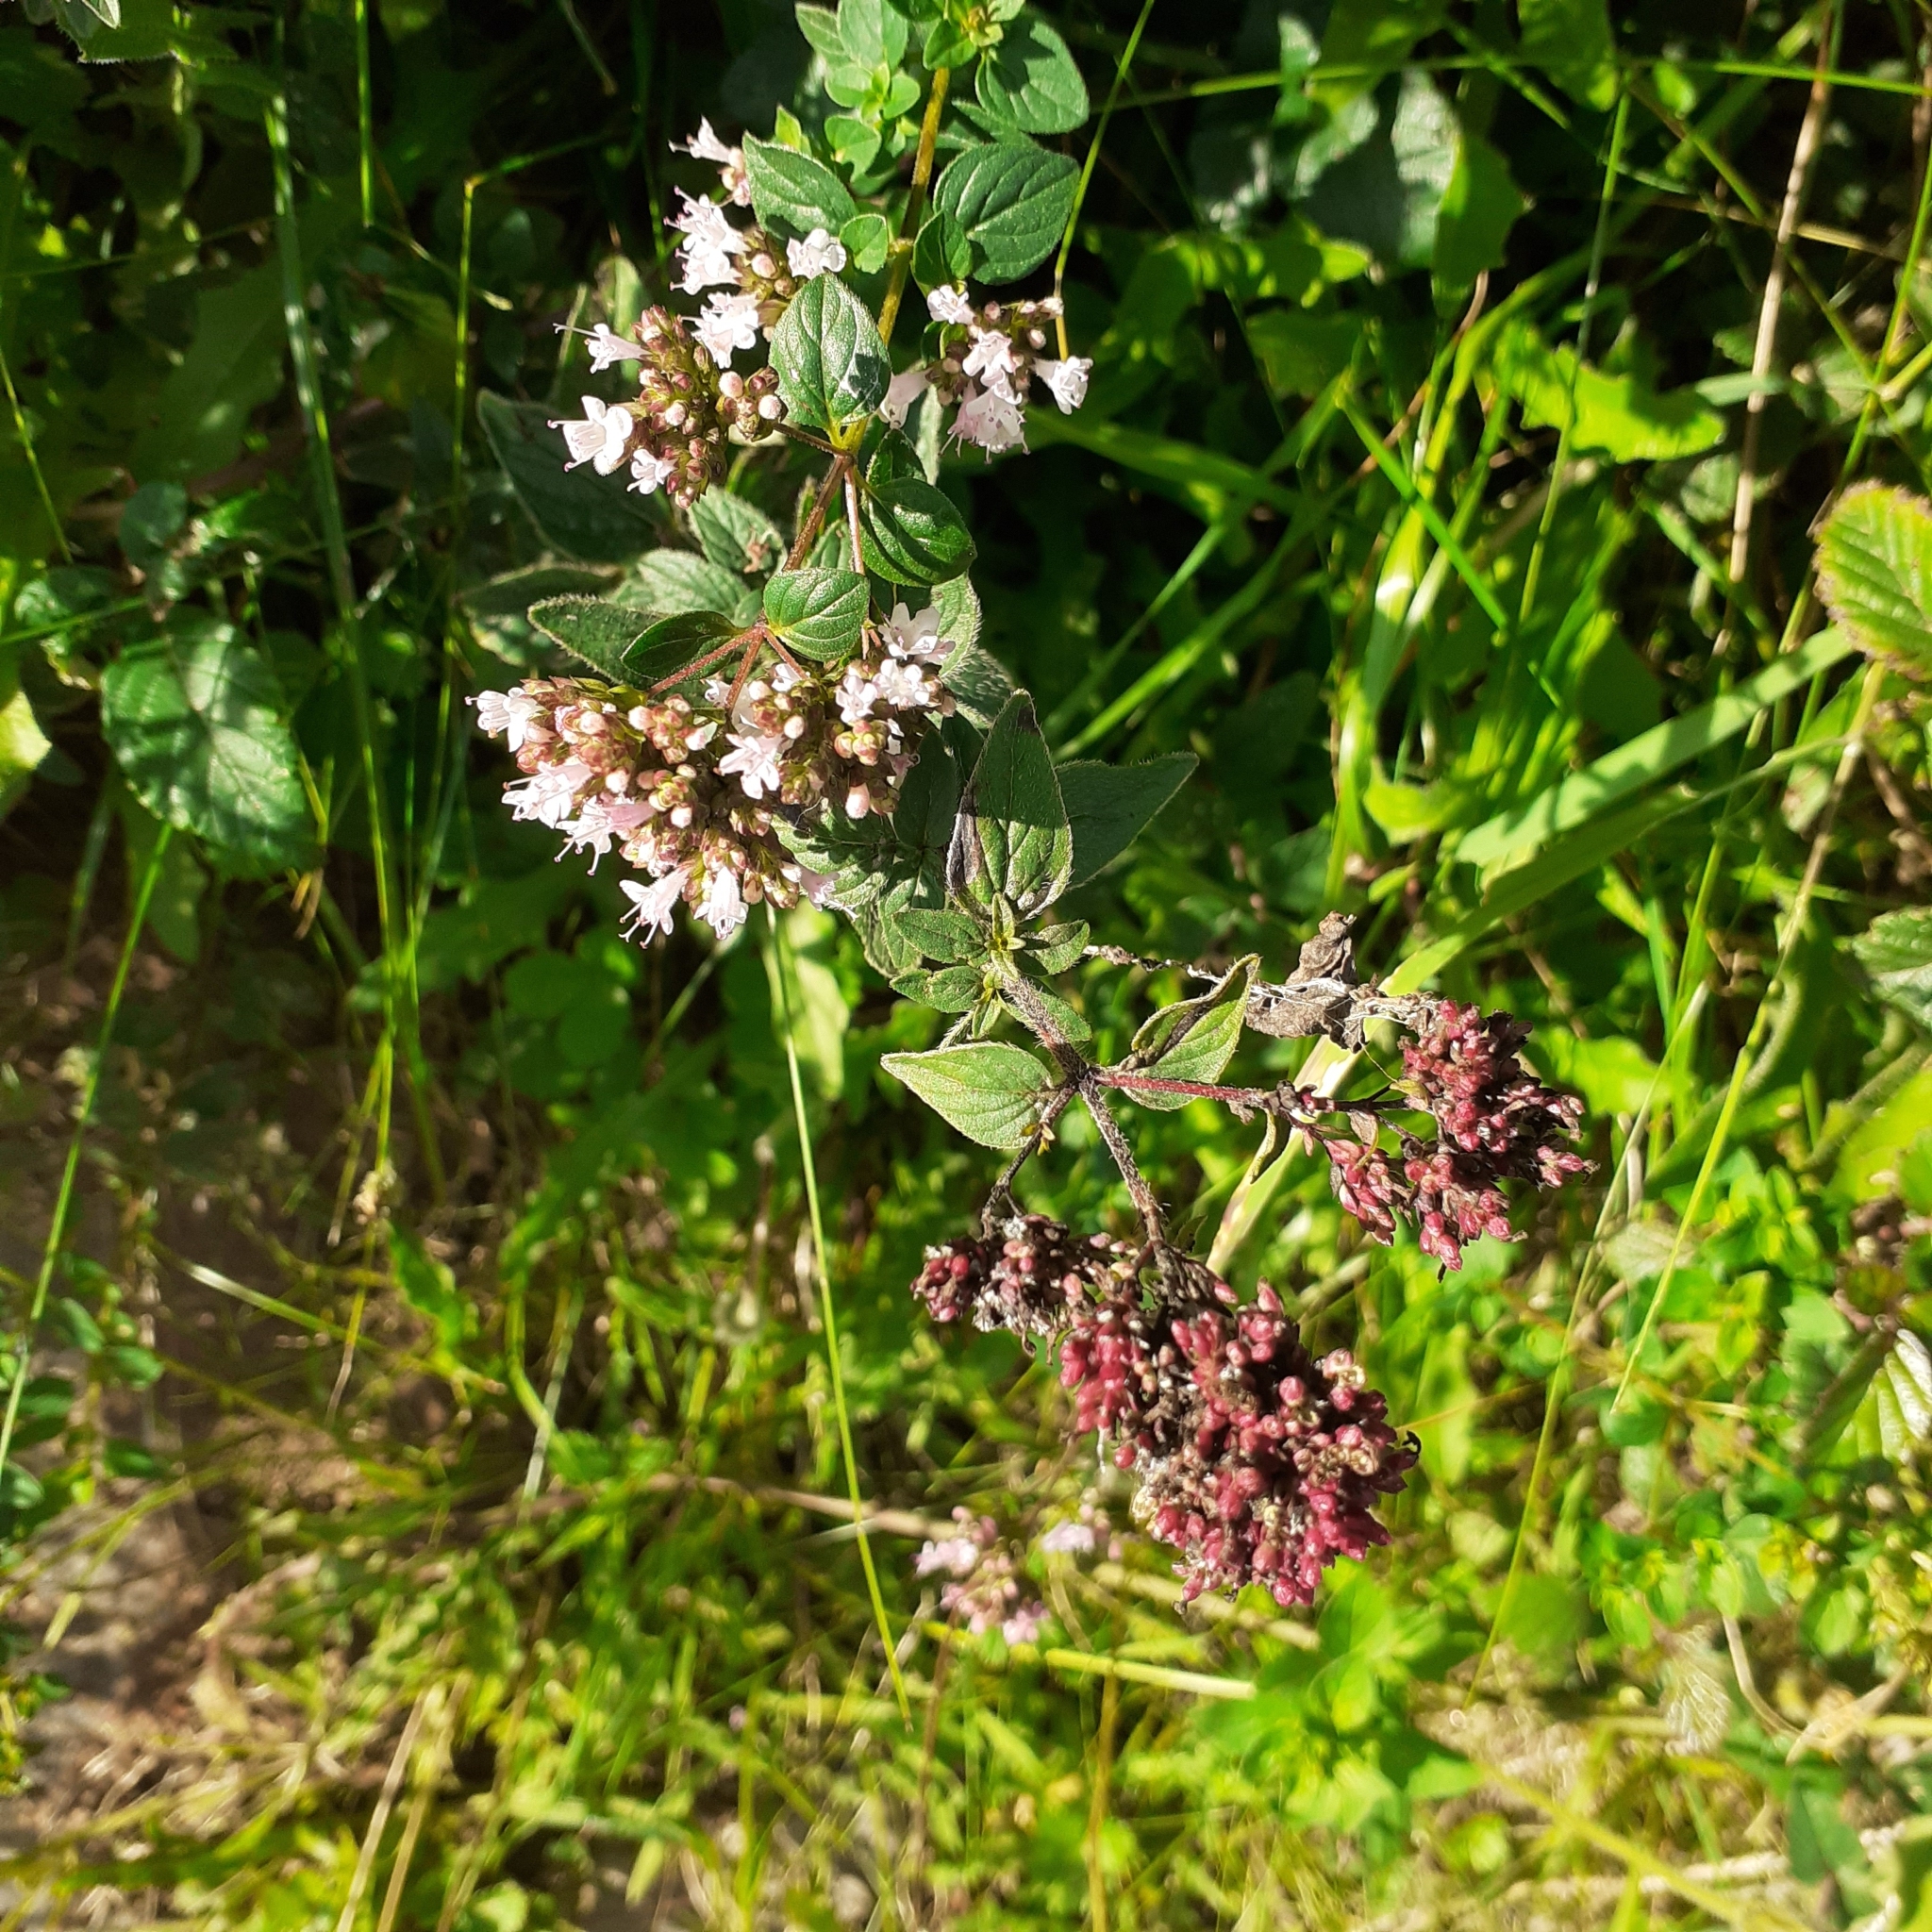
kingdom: Plantae
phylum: Tracheophyta
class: Magnoliopsida
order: Lamiales
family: Lamiaceae
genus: Origanum
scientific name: Origanum vulgare
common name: Wild marjoram
